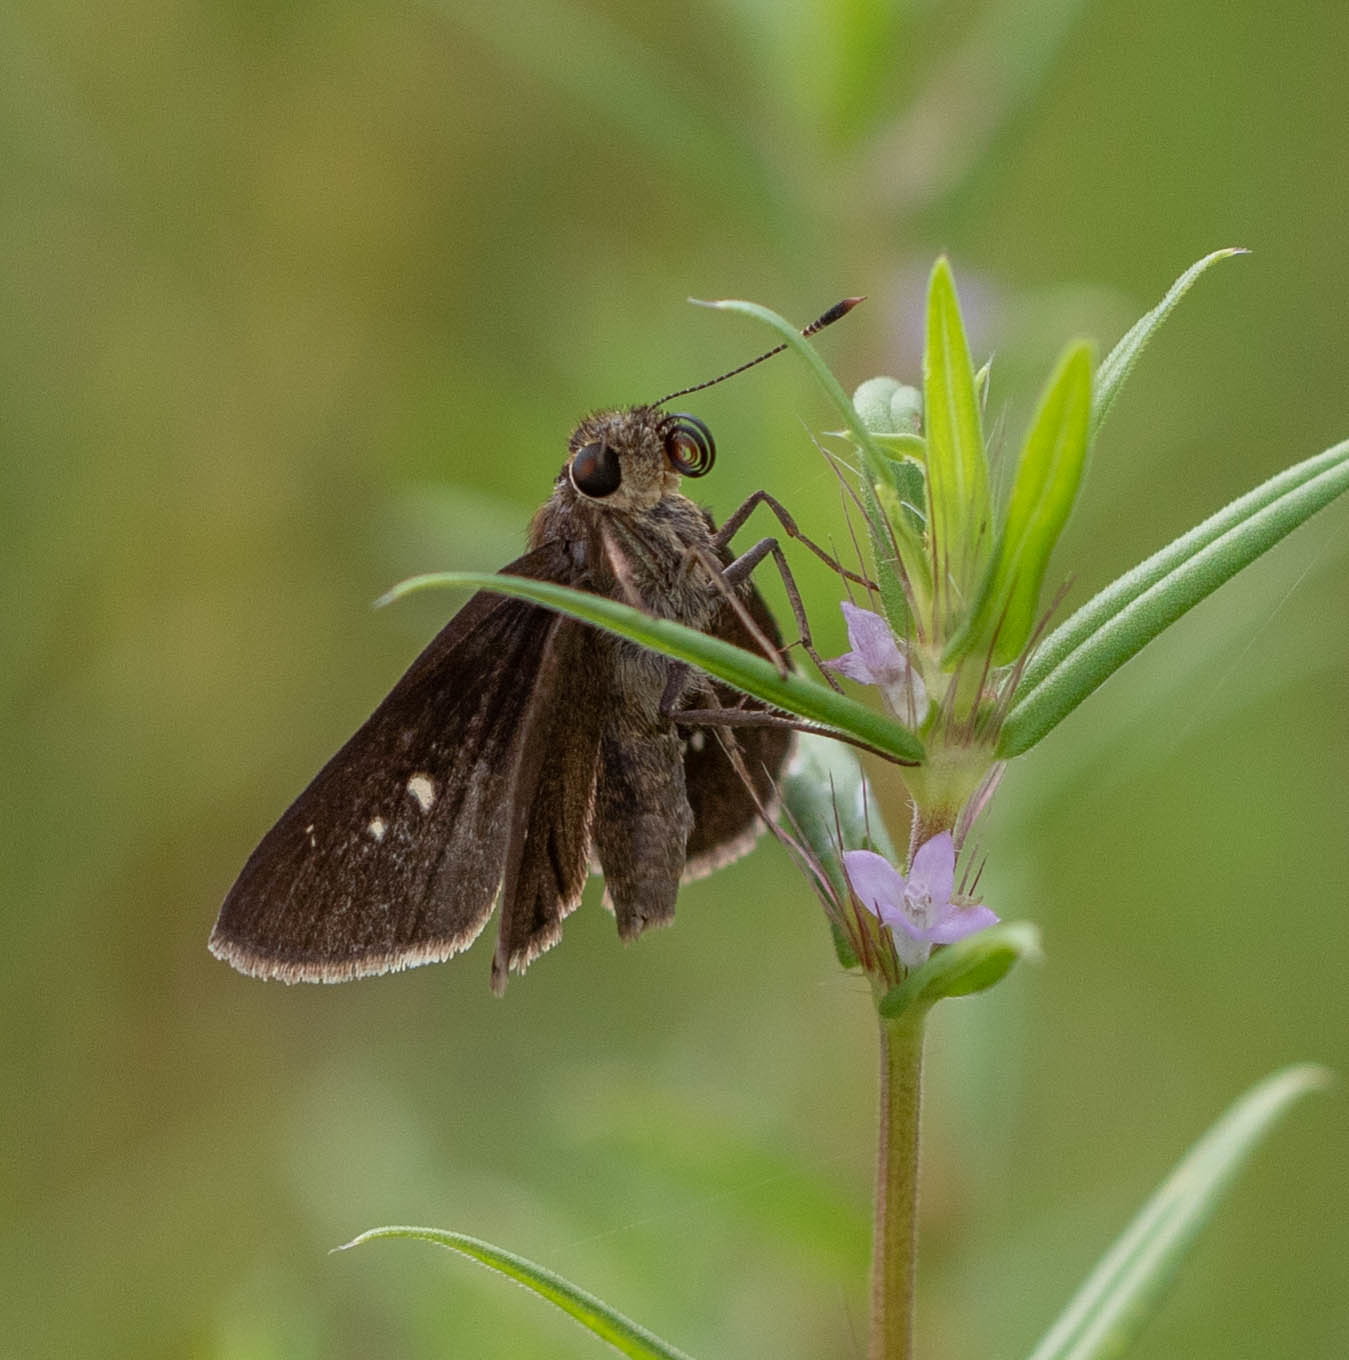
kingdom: Animalia
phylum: Arthropoda
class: Insecta
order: Lepidoptera
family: Hesperiidae
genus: Oligoria
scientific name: Oligoria maculata
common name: Twin-spot skipper
